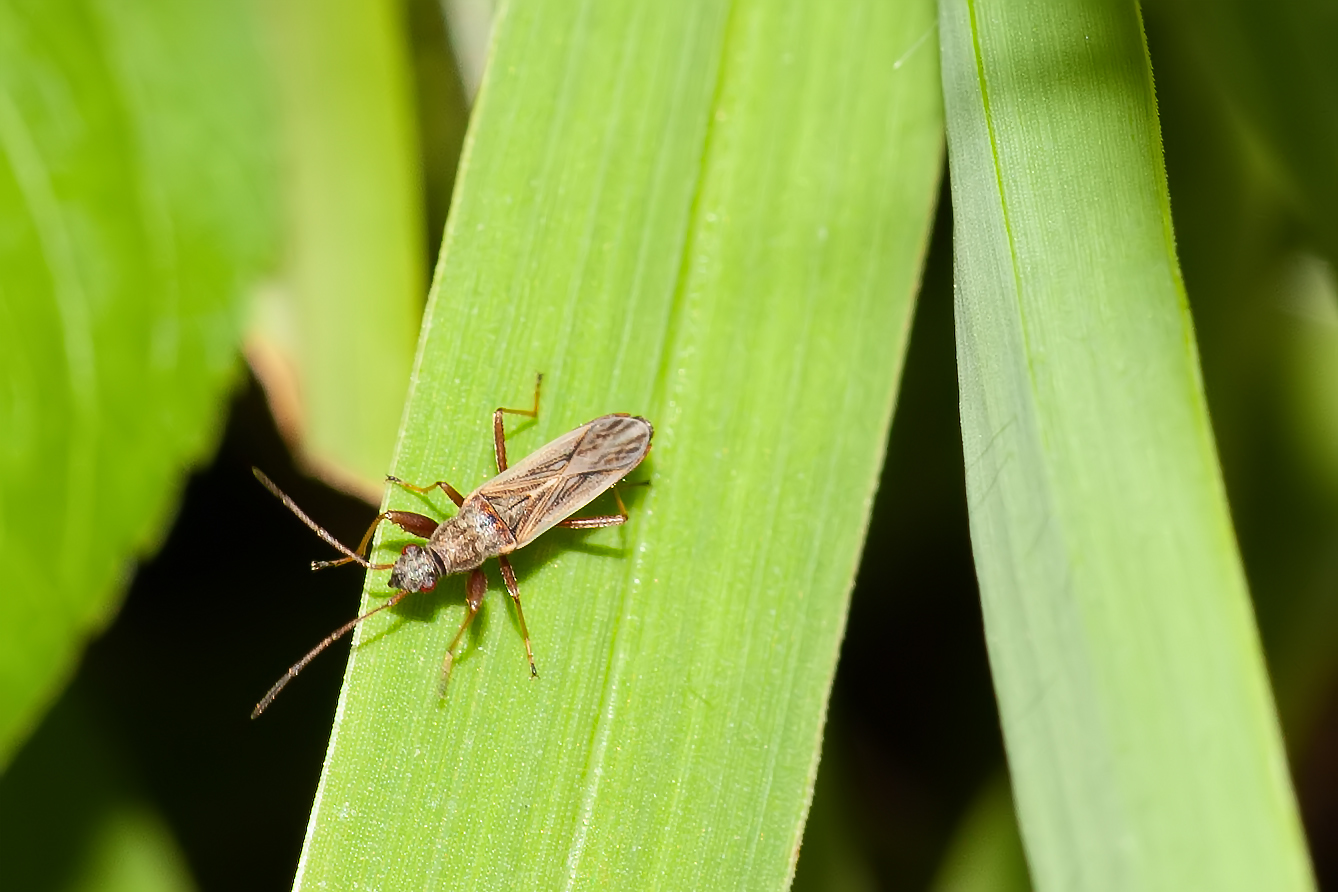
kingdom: Animalia
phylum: Arthropoda
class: Insecta
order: Hemiptera
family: Rhyparochromidae
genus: Paromius
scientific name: Paromius longulus
